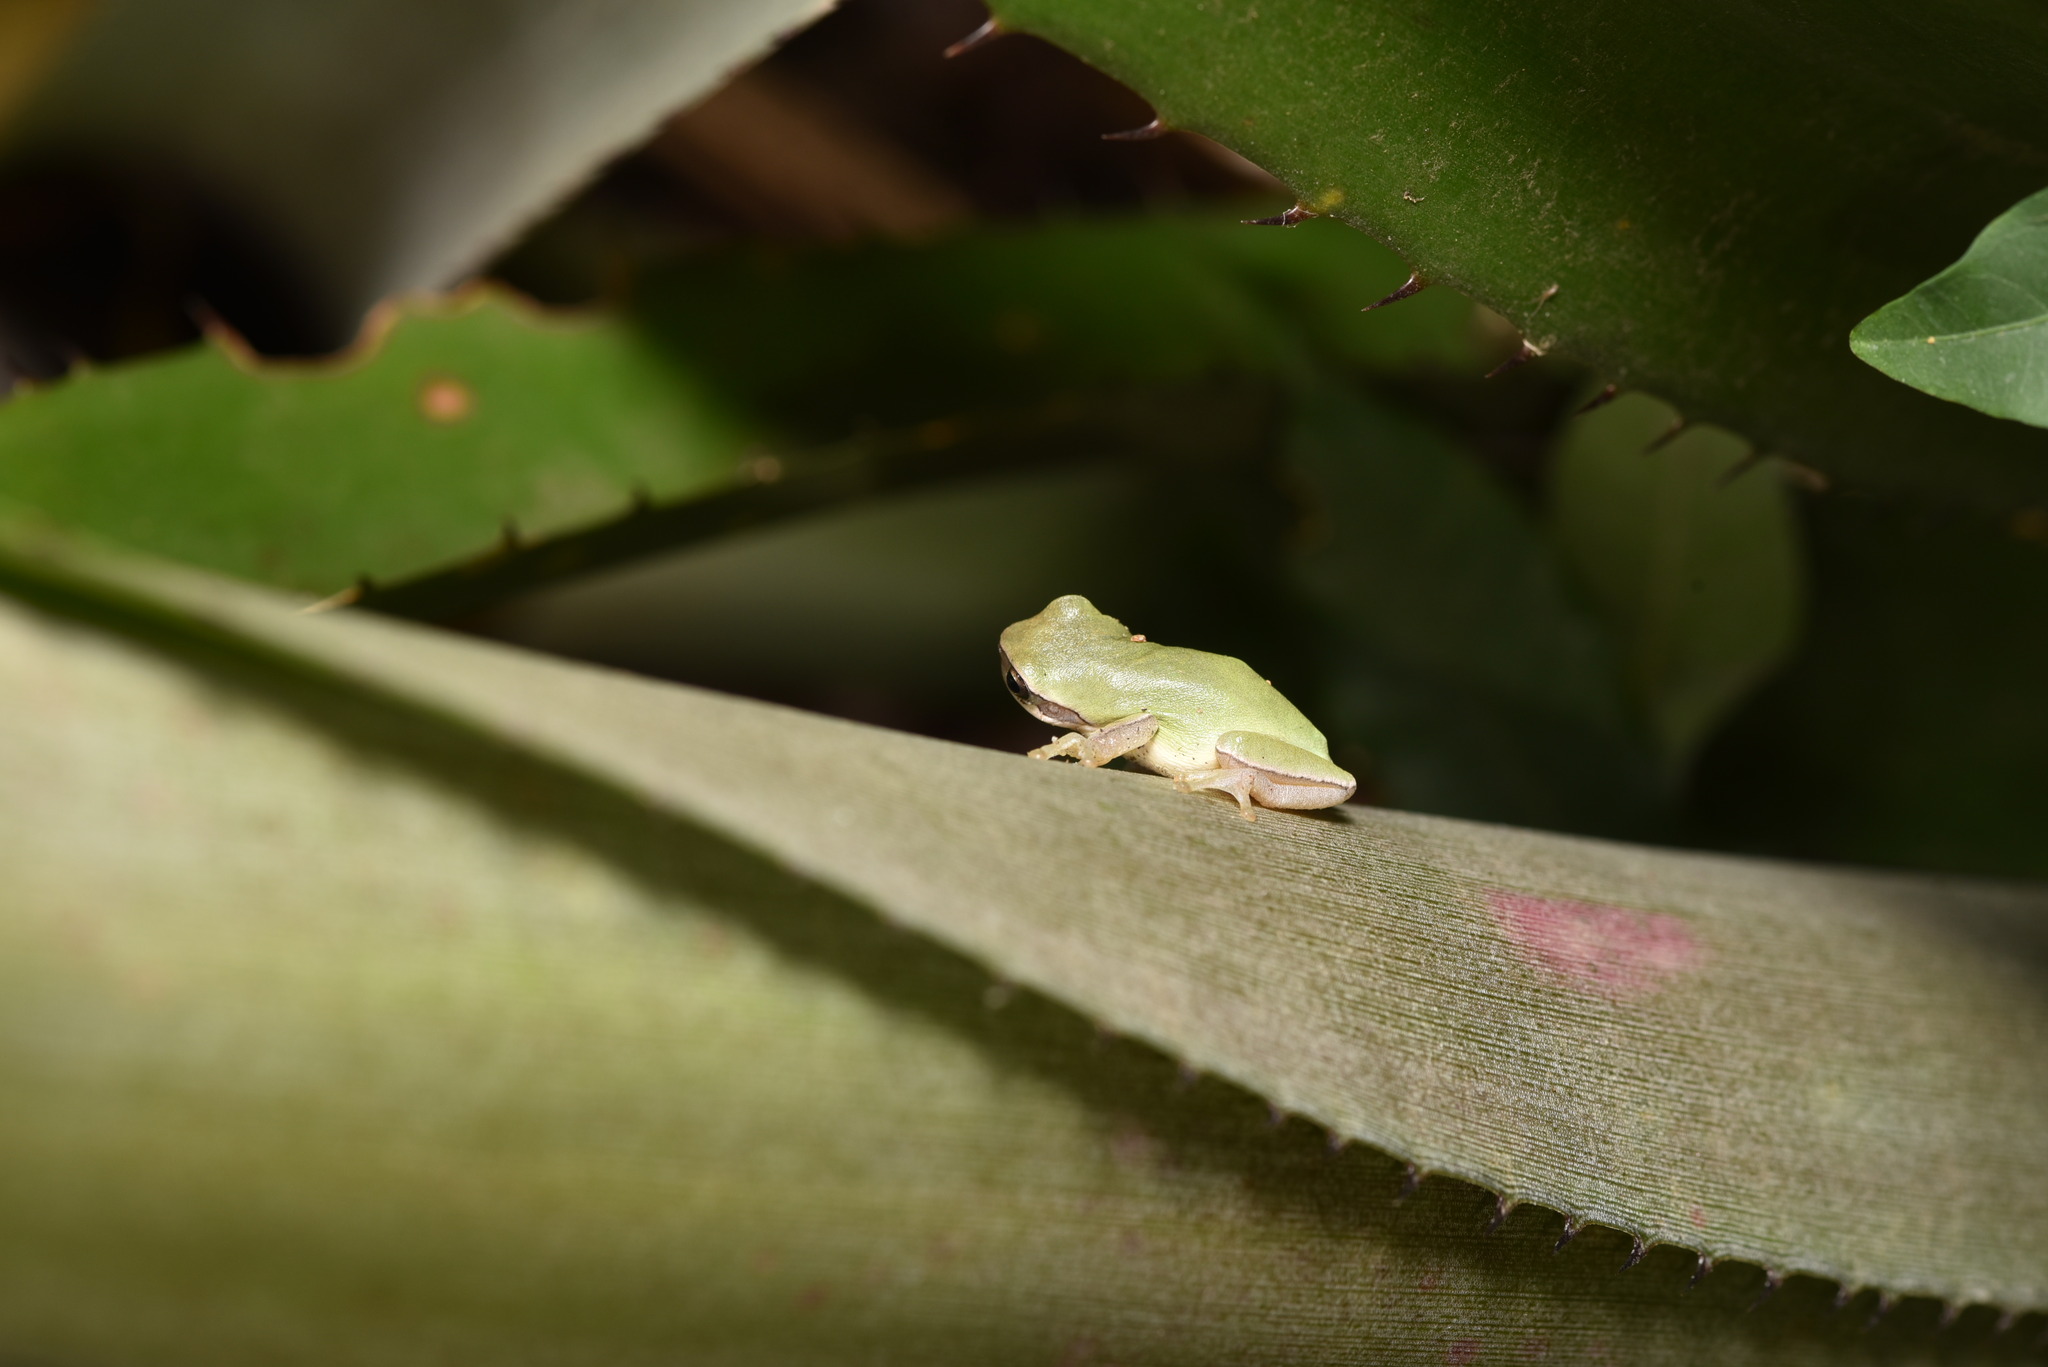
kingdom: Animalia
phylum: Chordata
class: Amphibia
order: Anura
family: Hylidae
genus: Hyla
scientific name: Hyla chinensis
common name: Common chinese treefrog
